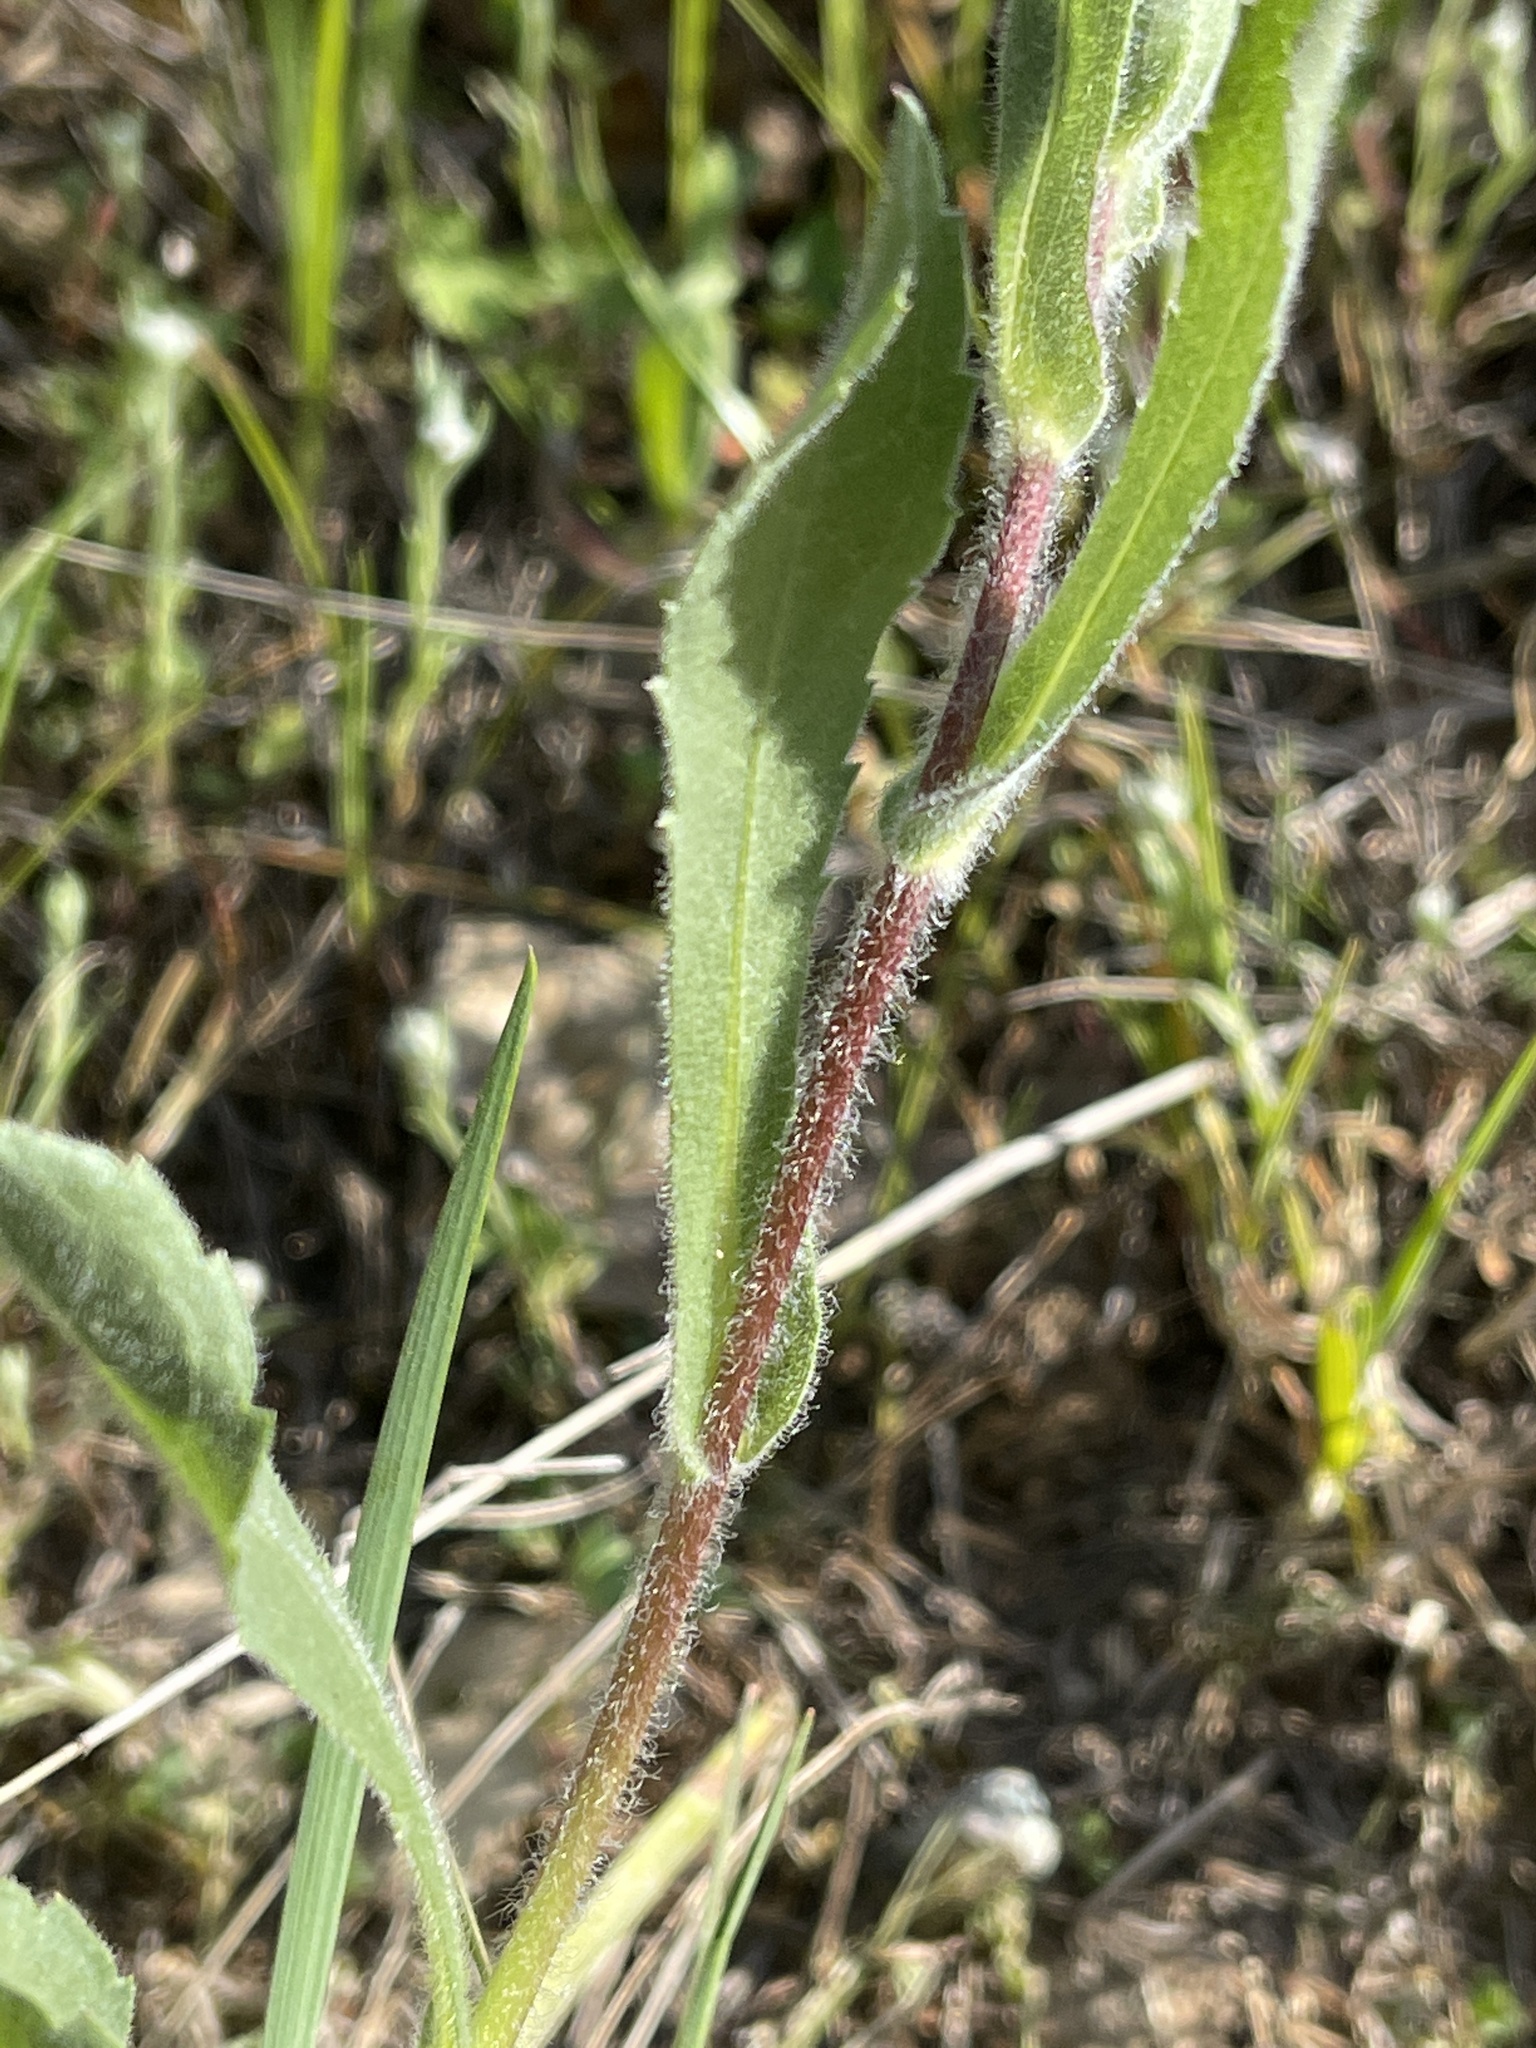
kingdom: Plantae
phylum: Tracheophyta
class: Magnoliopsida
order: Asterales
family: Asteraceae
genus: Grindelia
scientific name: Grindelia hirsutula
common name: Hairy gumweed
